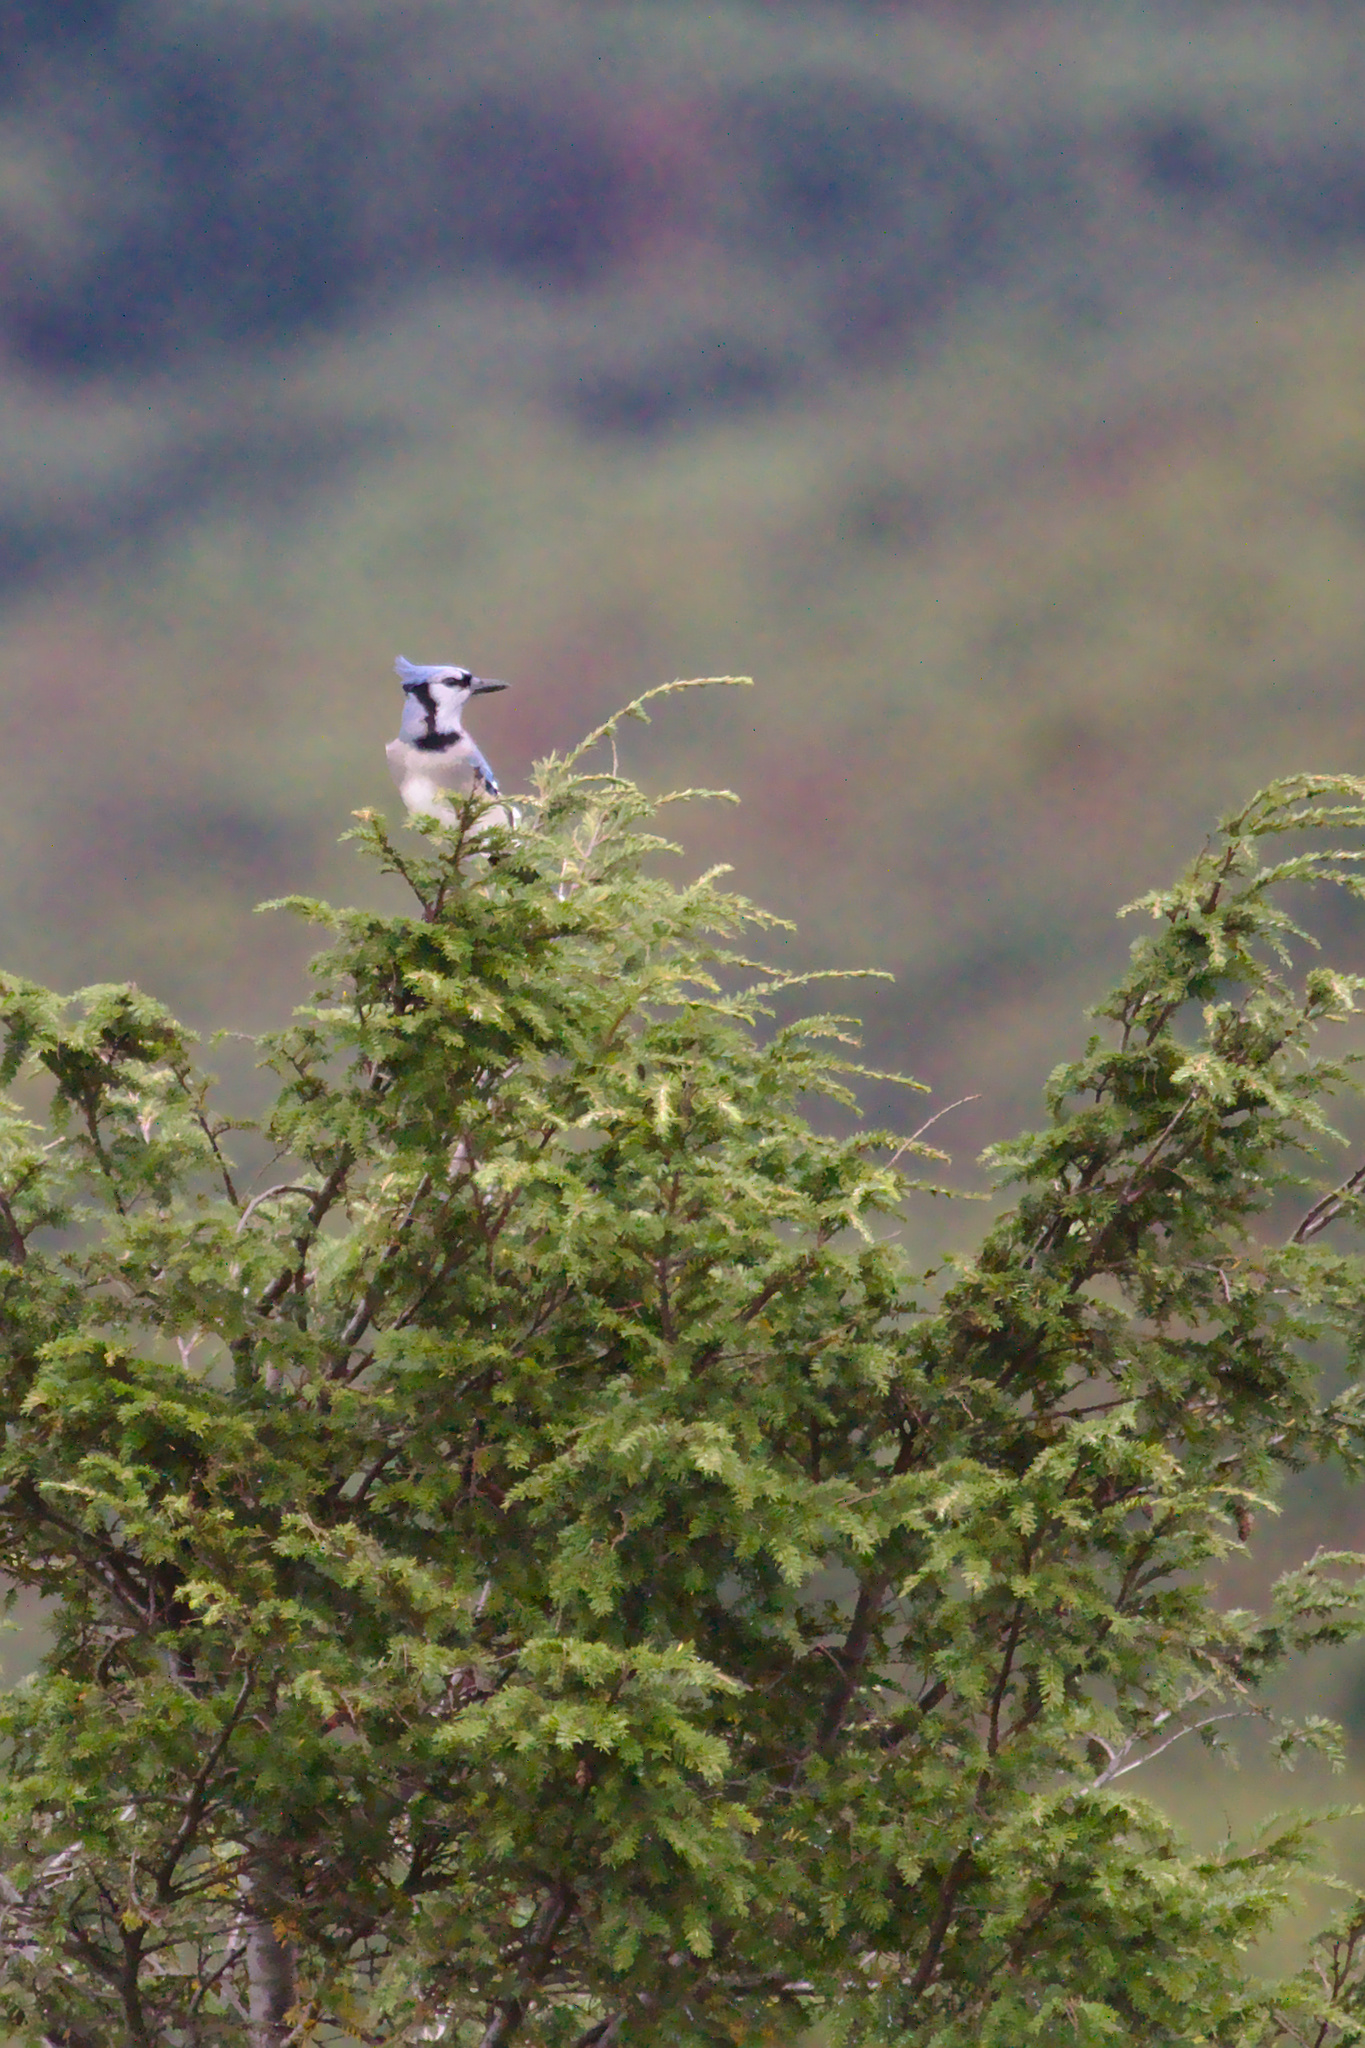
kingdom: Animalia
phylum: Chordata
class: Aves
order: Passeriformes
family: Corvidae
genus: Cyanocitta
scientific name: Cyanocitta cristata
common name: Blue jay
